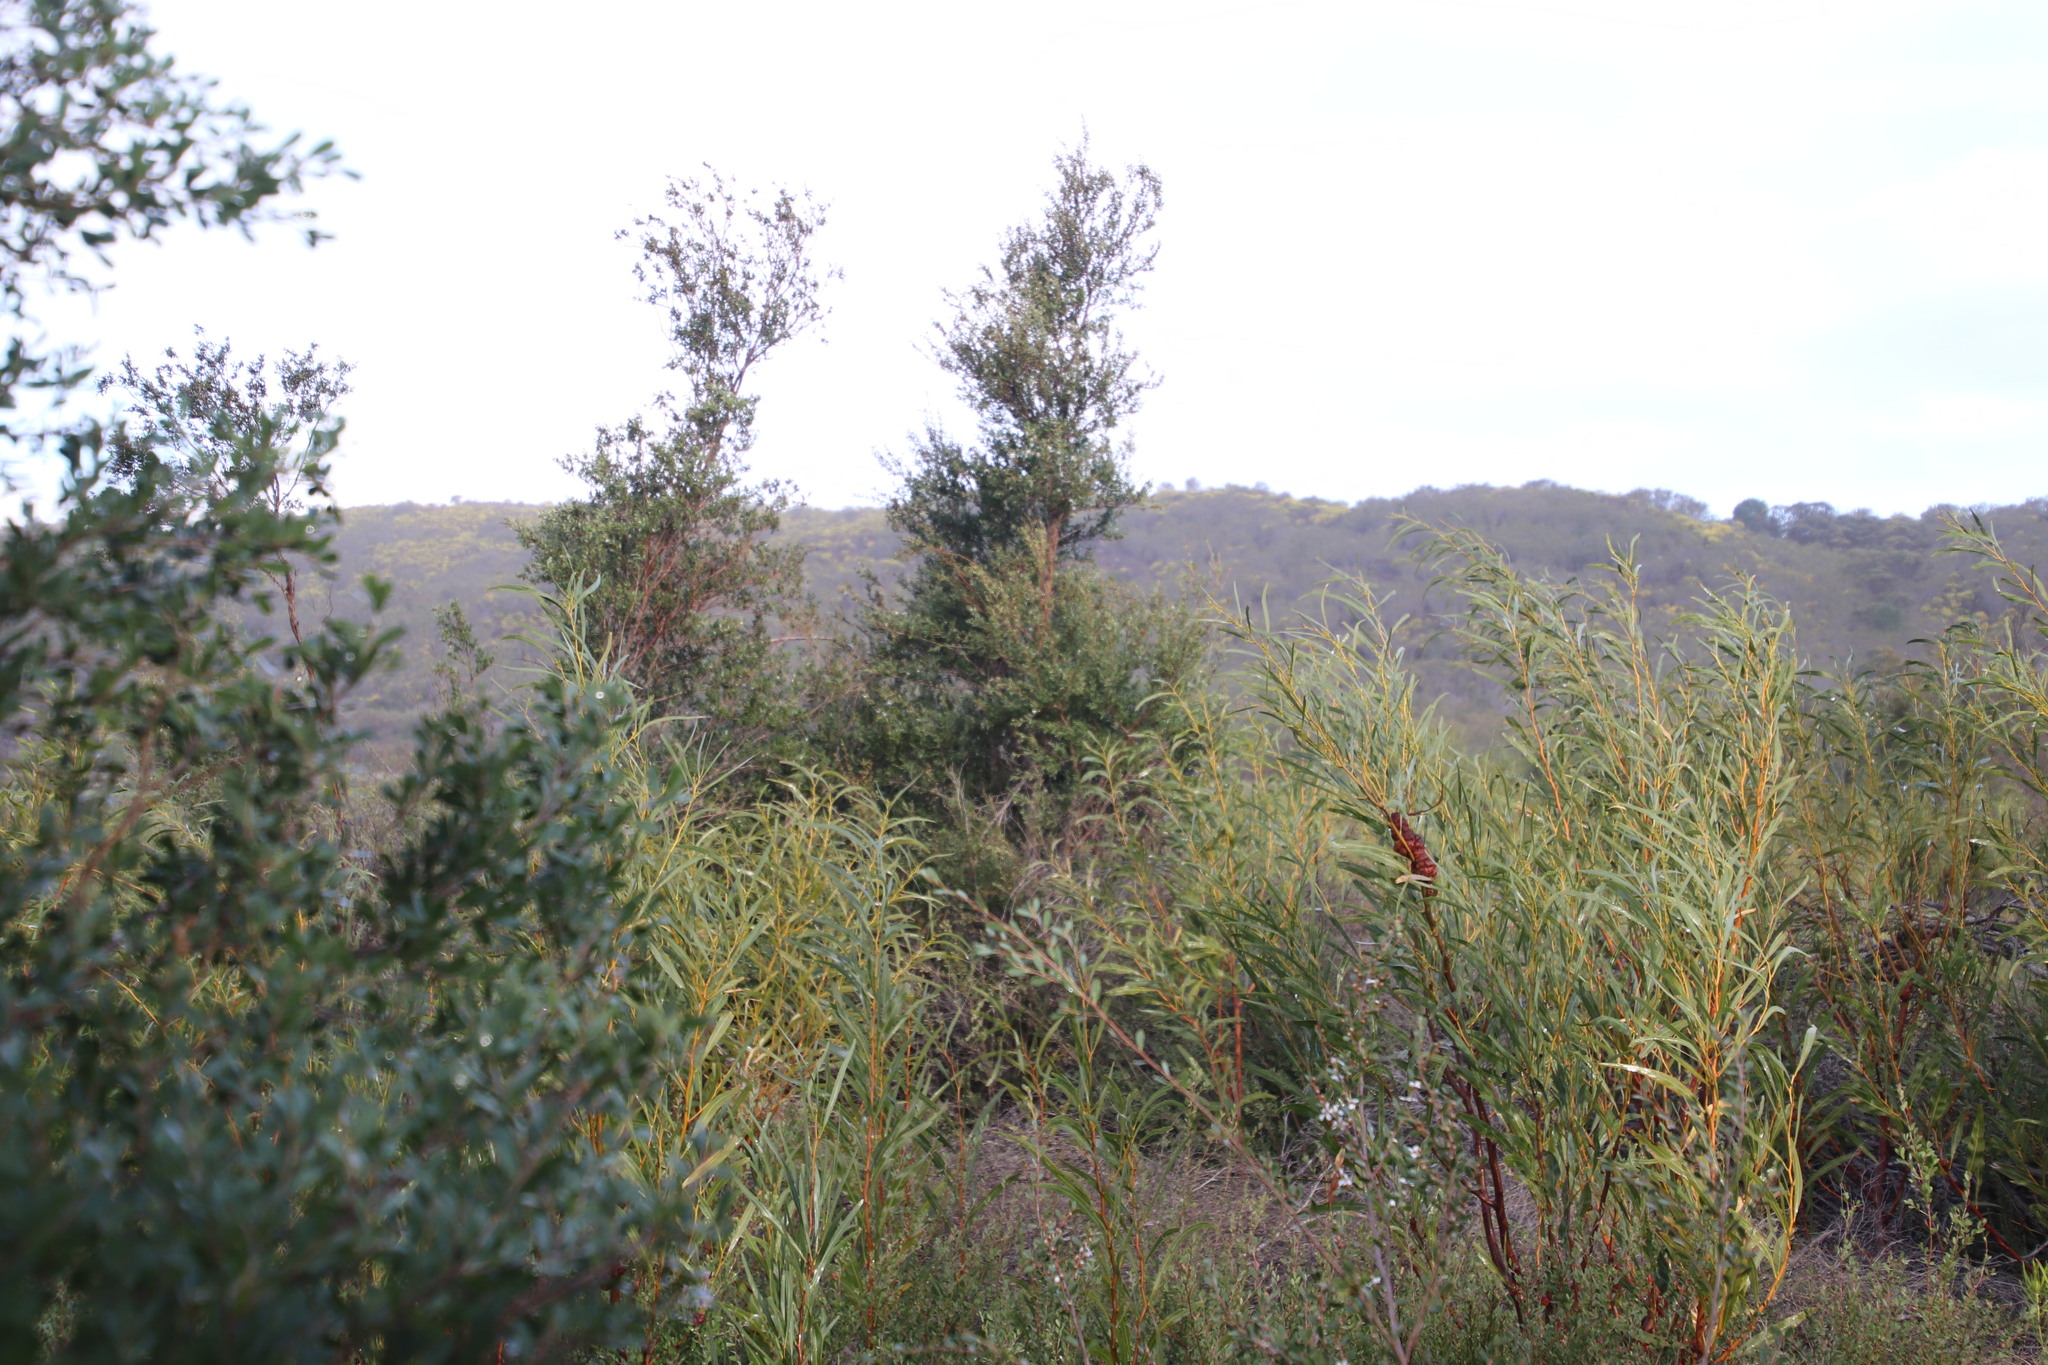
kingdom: Plantae
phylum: Tracheophyta
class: Magnoliopsida
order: Myrtales
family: Myrtaceae
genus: Leptospermum
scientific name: Leptospermum laevigatum
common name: Australian teatree
